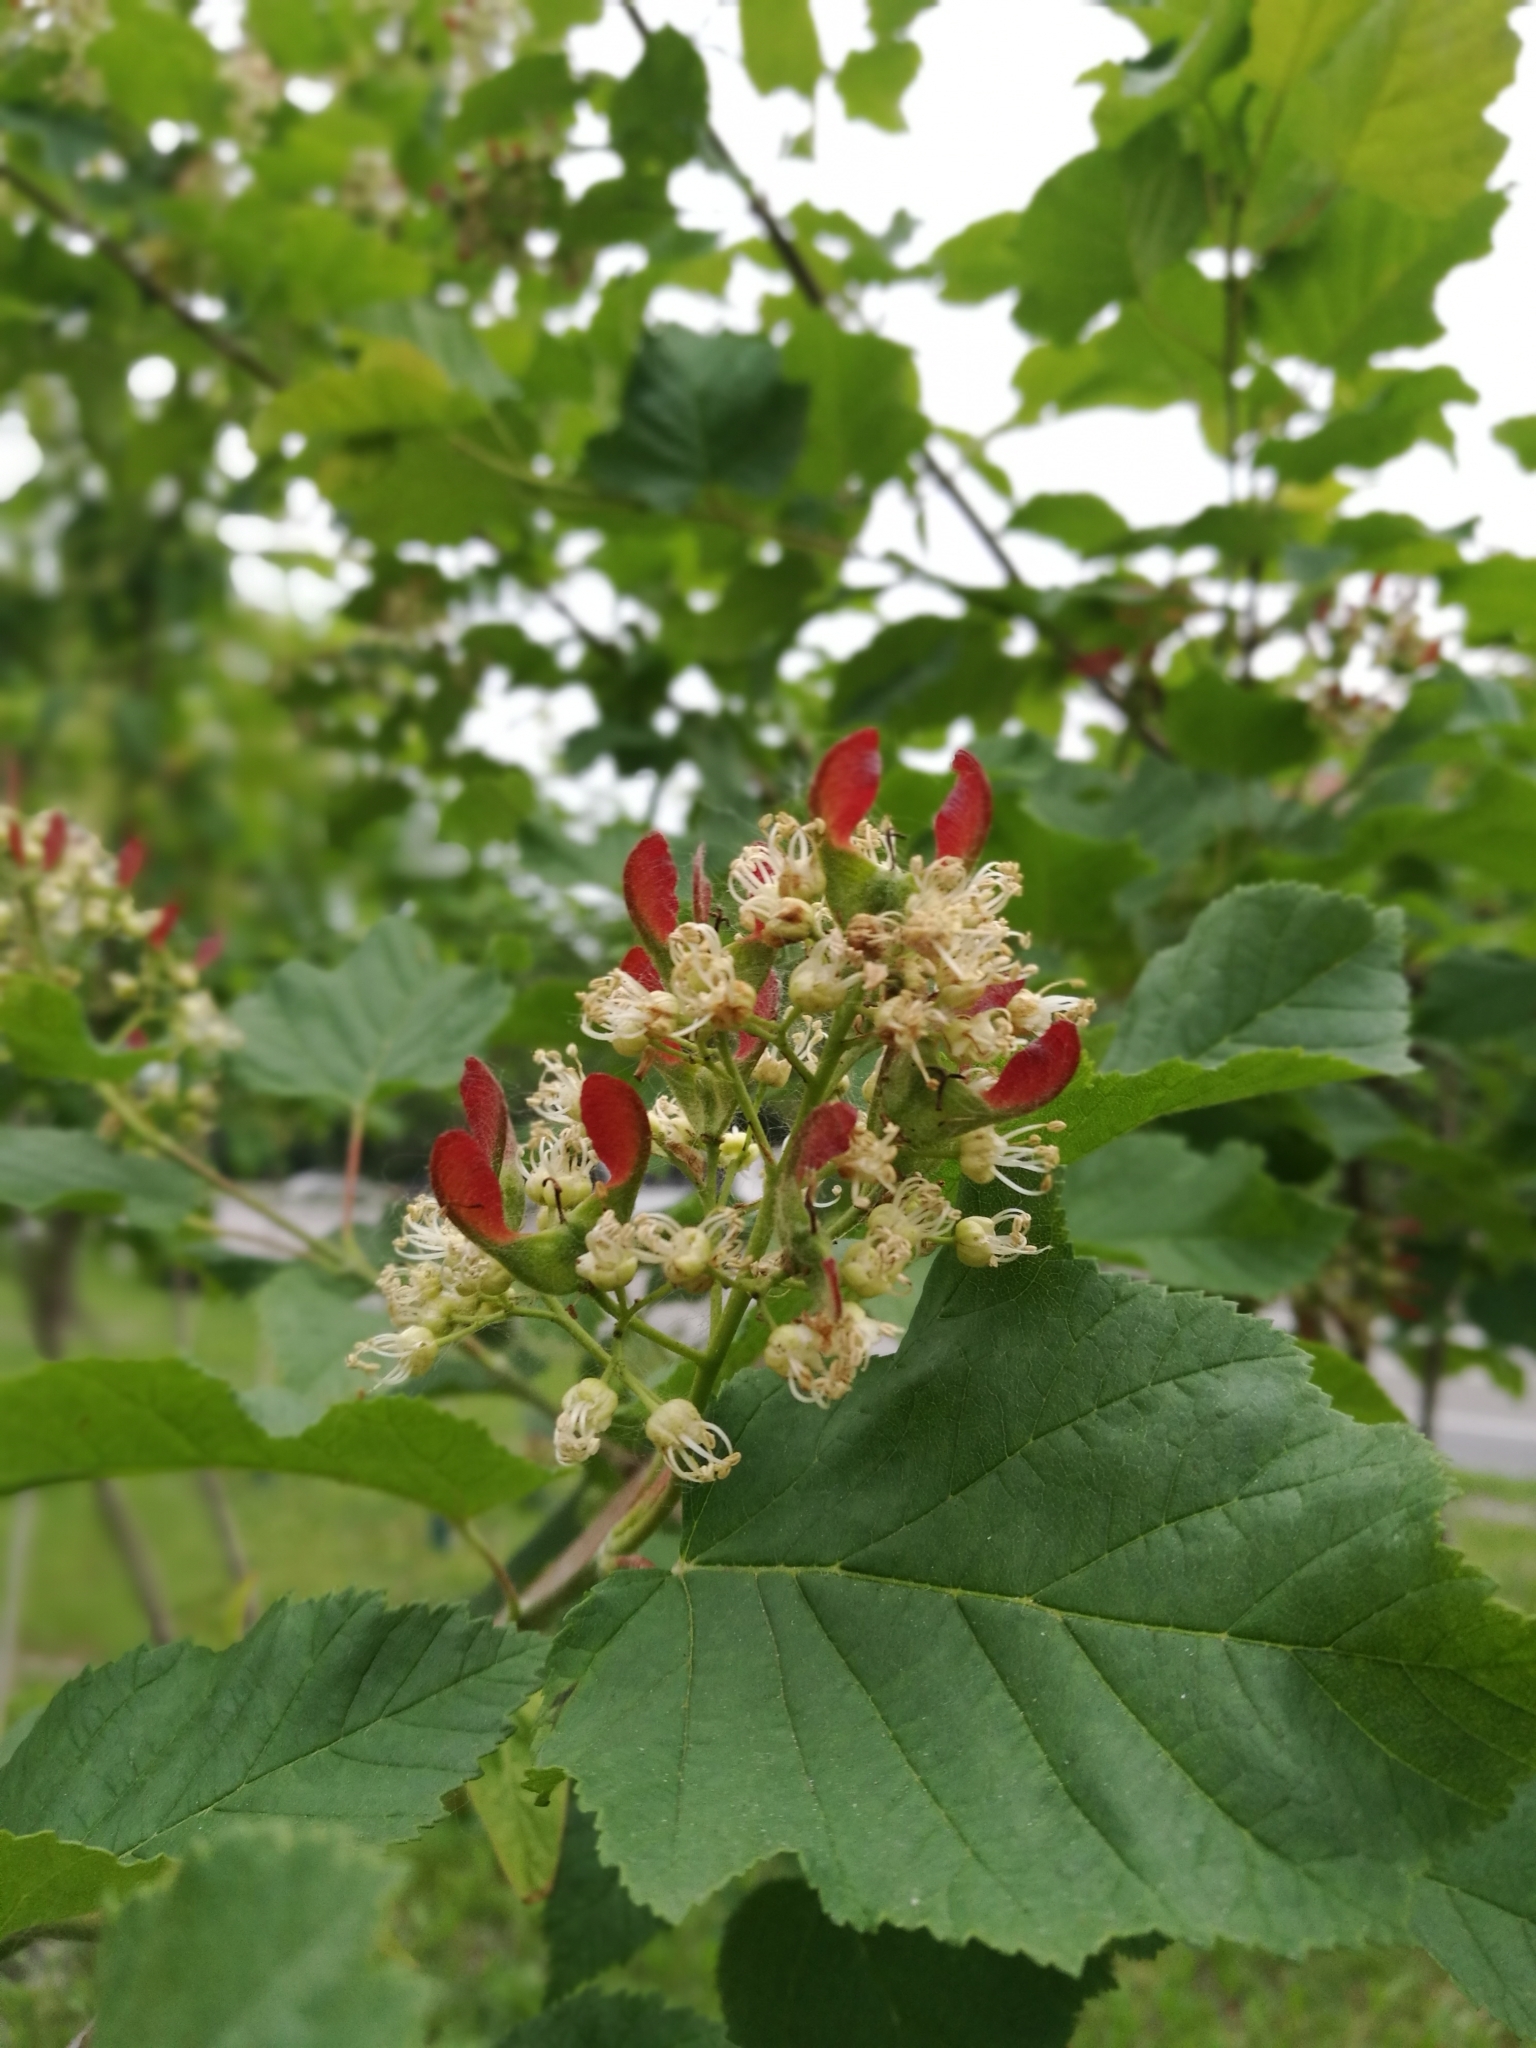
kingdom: Plantae
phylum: Tracheophyta
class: Magnoliopsida
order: Sapindales
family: Sapindaceae
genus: Acer
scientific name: Acer tataricum
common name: Tartar maple
